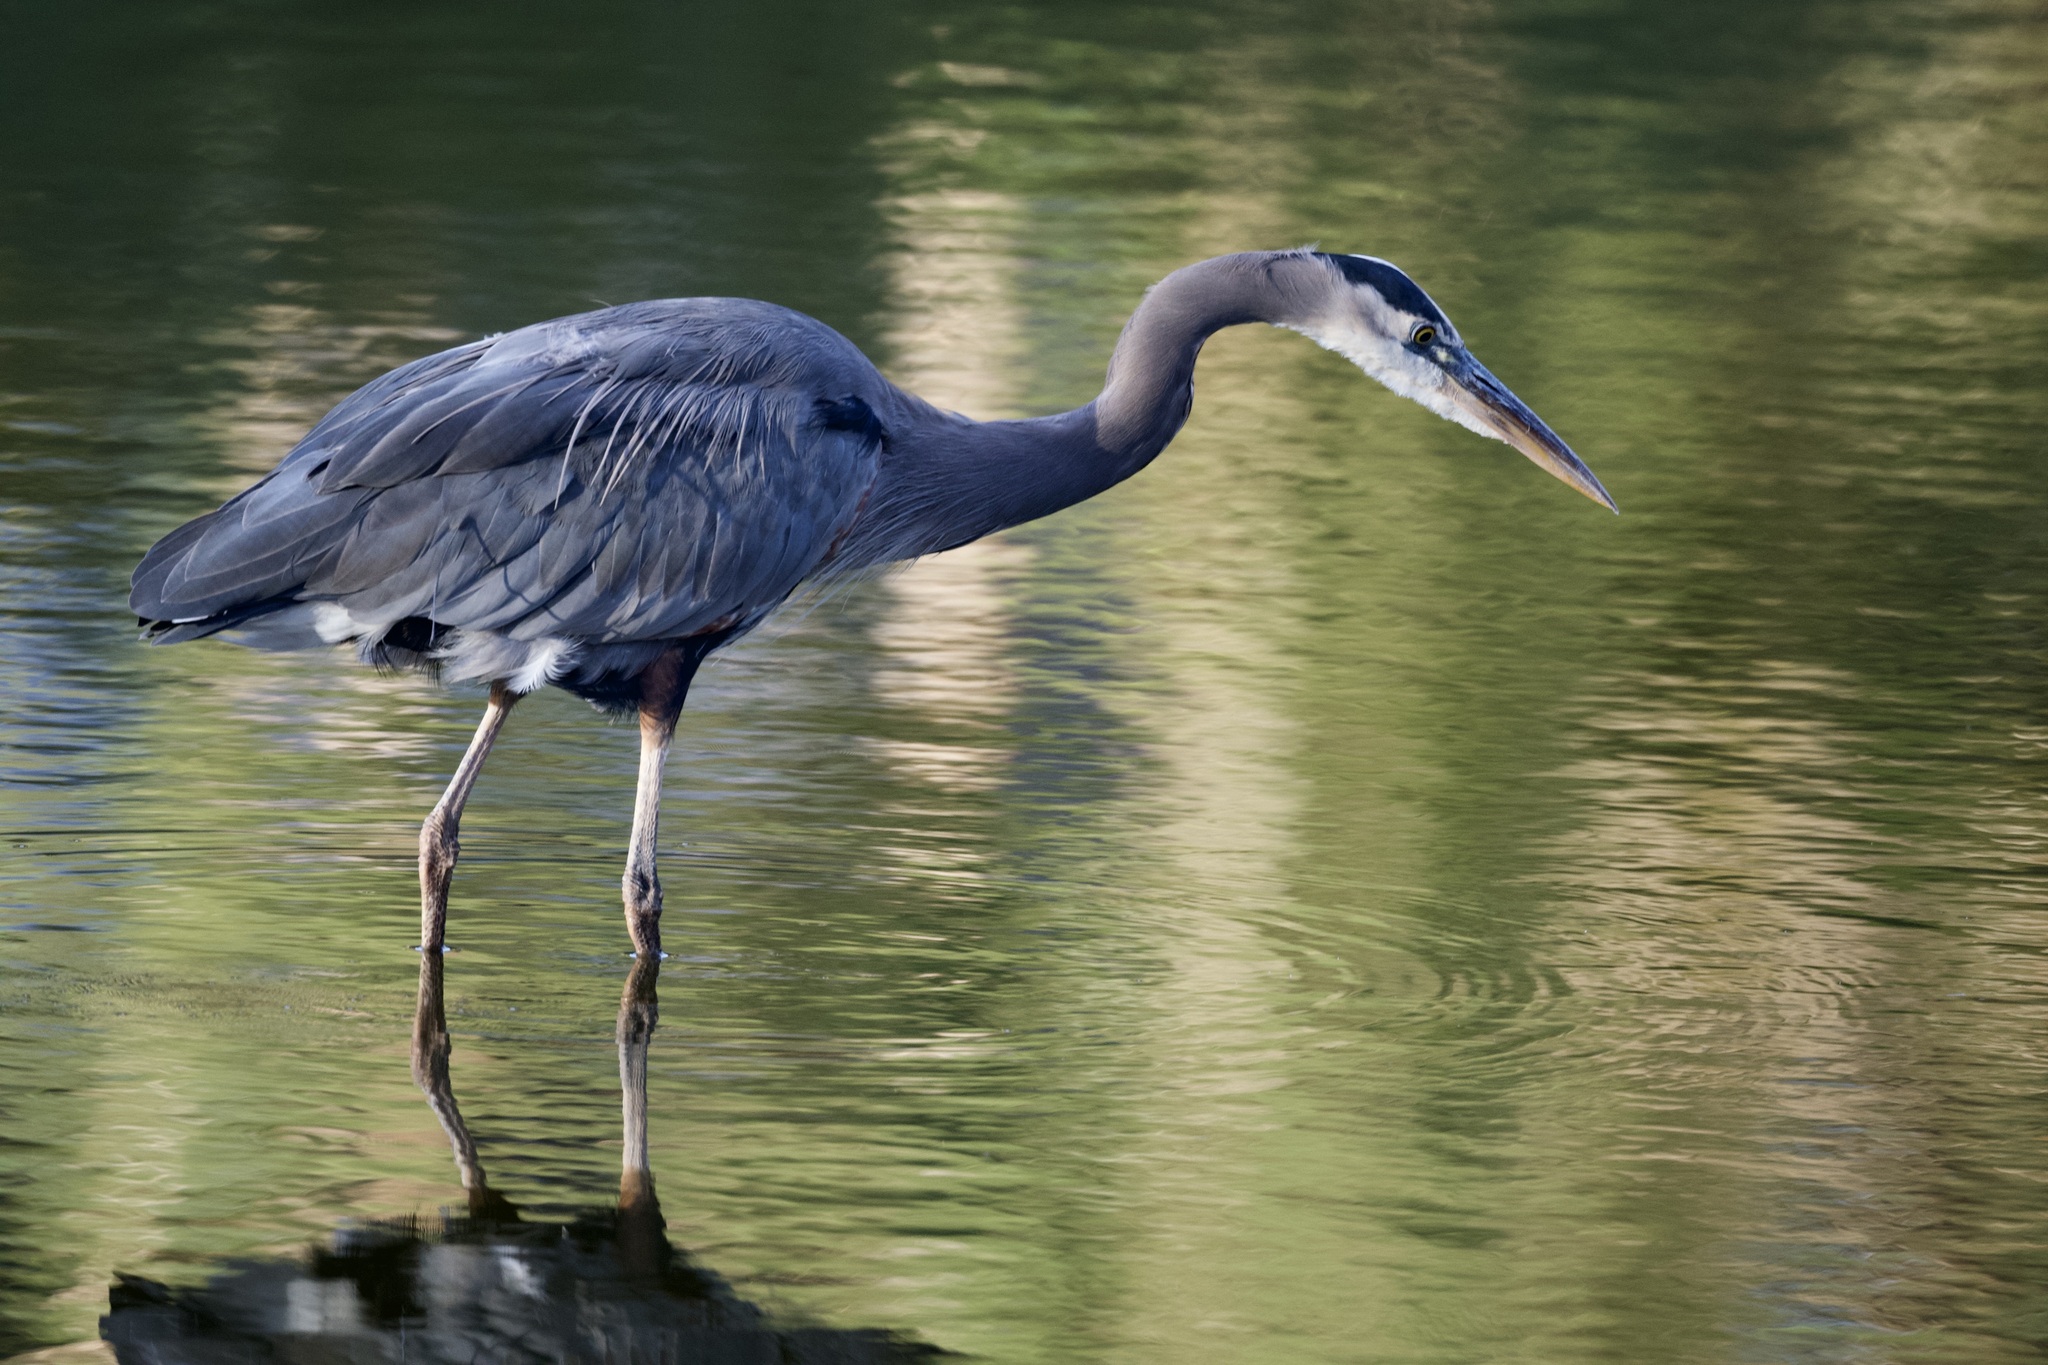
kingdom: Animalia
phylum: Chordata
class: Aves
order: Pelecaniformes
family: Ardeidae
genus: Ardea
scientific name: Ardea herodias
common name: Great blue heron
